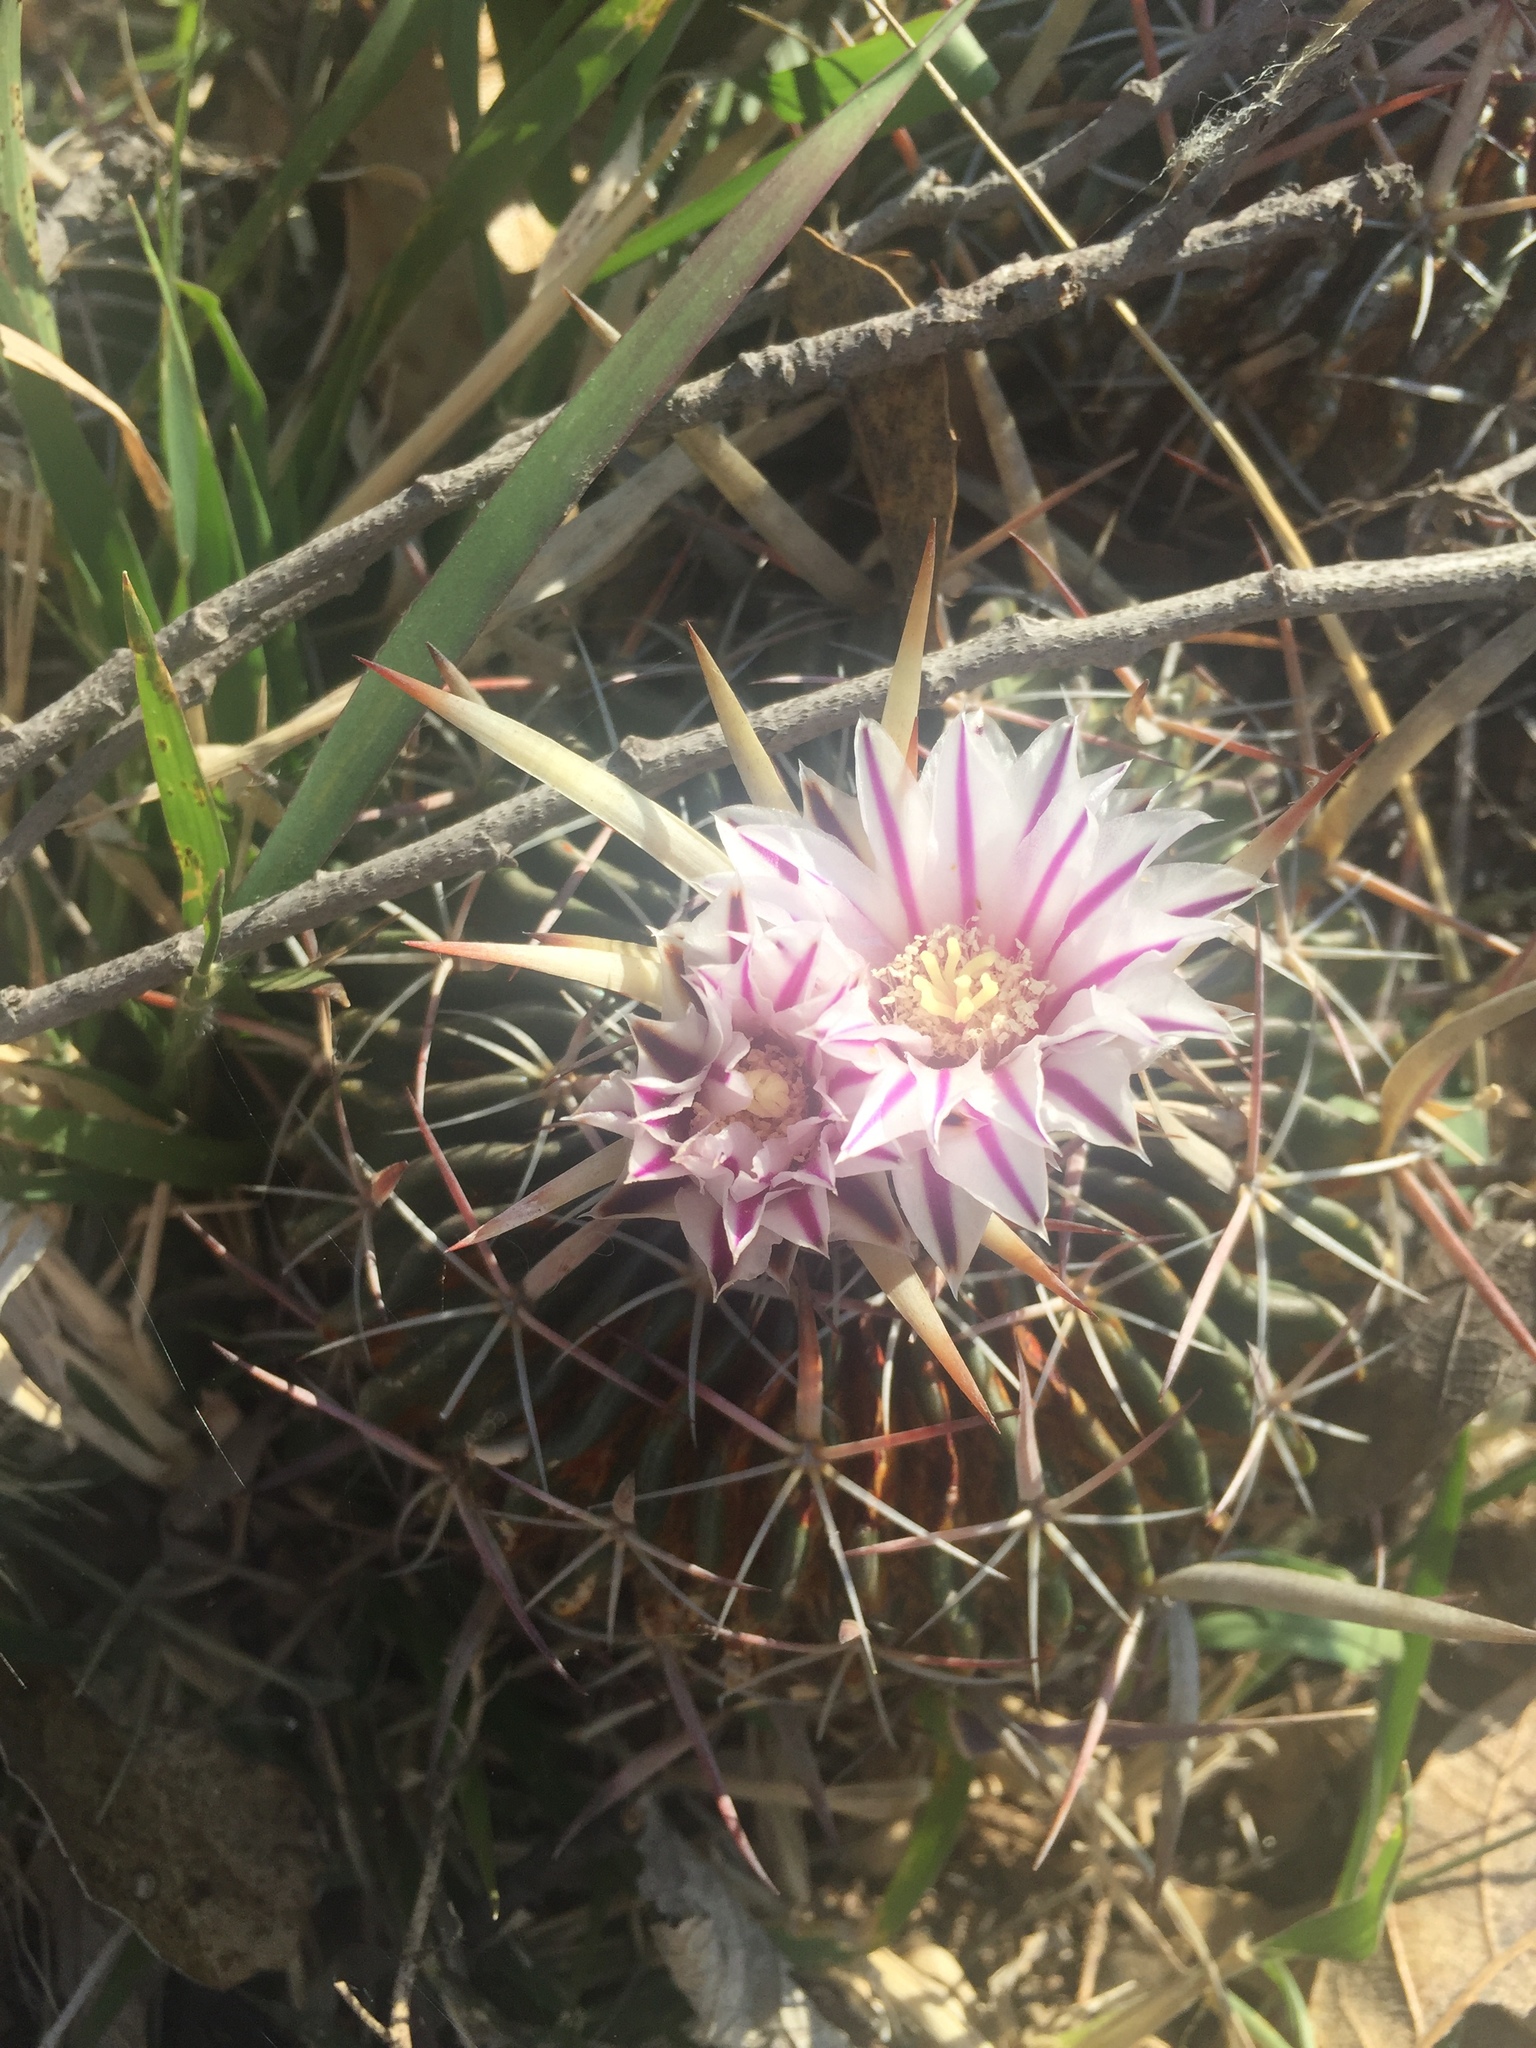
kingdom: Plantae
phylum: Tracheophyta
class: Magnoliopsida
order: Caryophyllales
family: Cactaceae
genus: Stenocactus
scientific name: Stenocactus multicostatus
